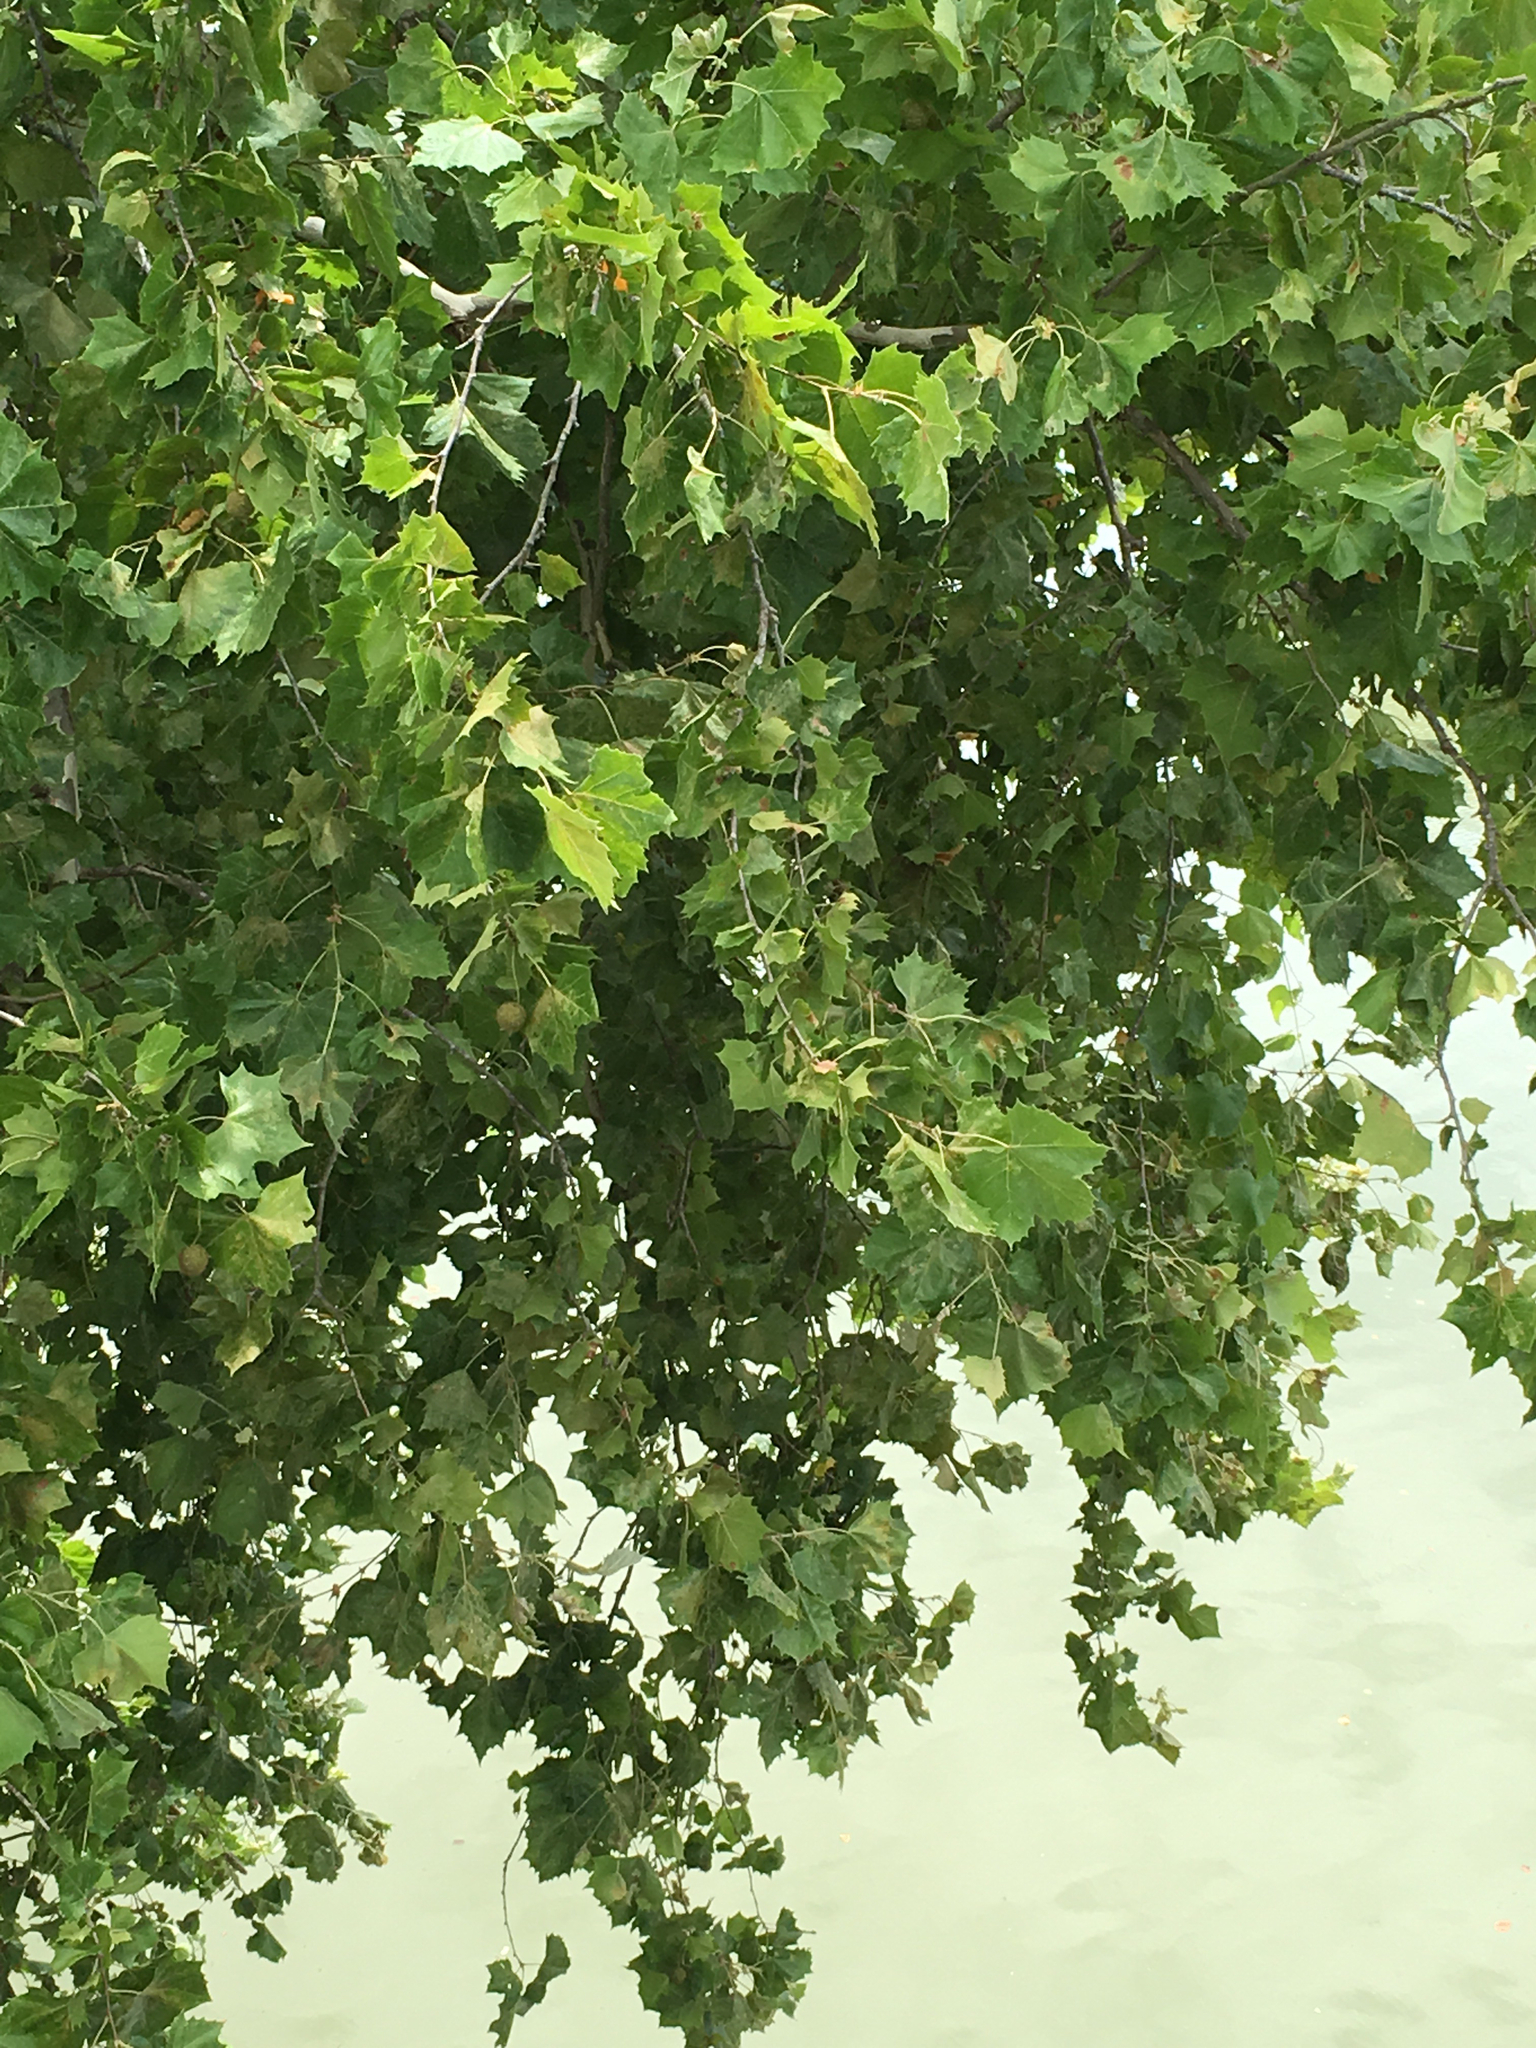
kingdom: Plantae
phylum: Tracheophyta
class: Magnoliopsida
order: Proteales
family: Platanaceae
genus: Platanus
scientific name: Platanus occidentalis
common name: American sycamore
